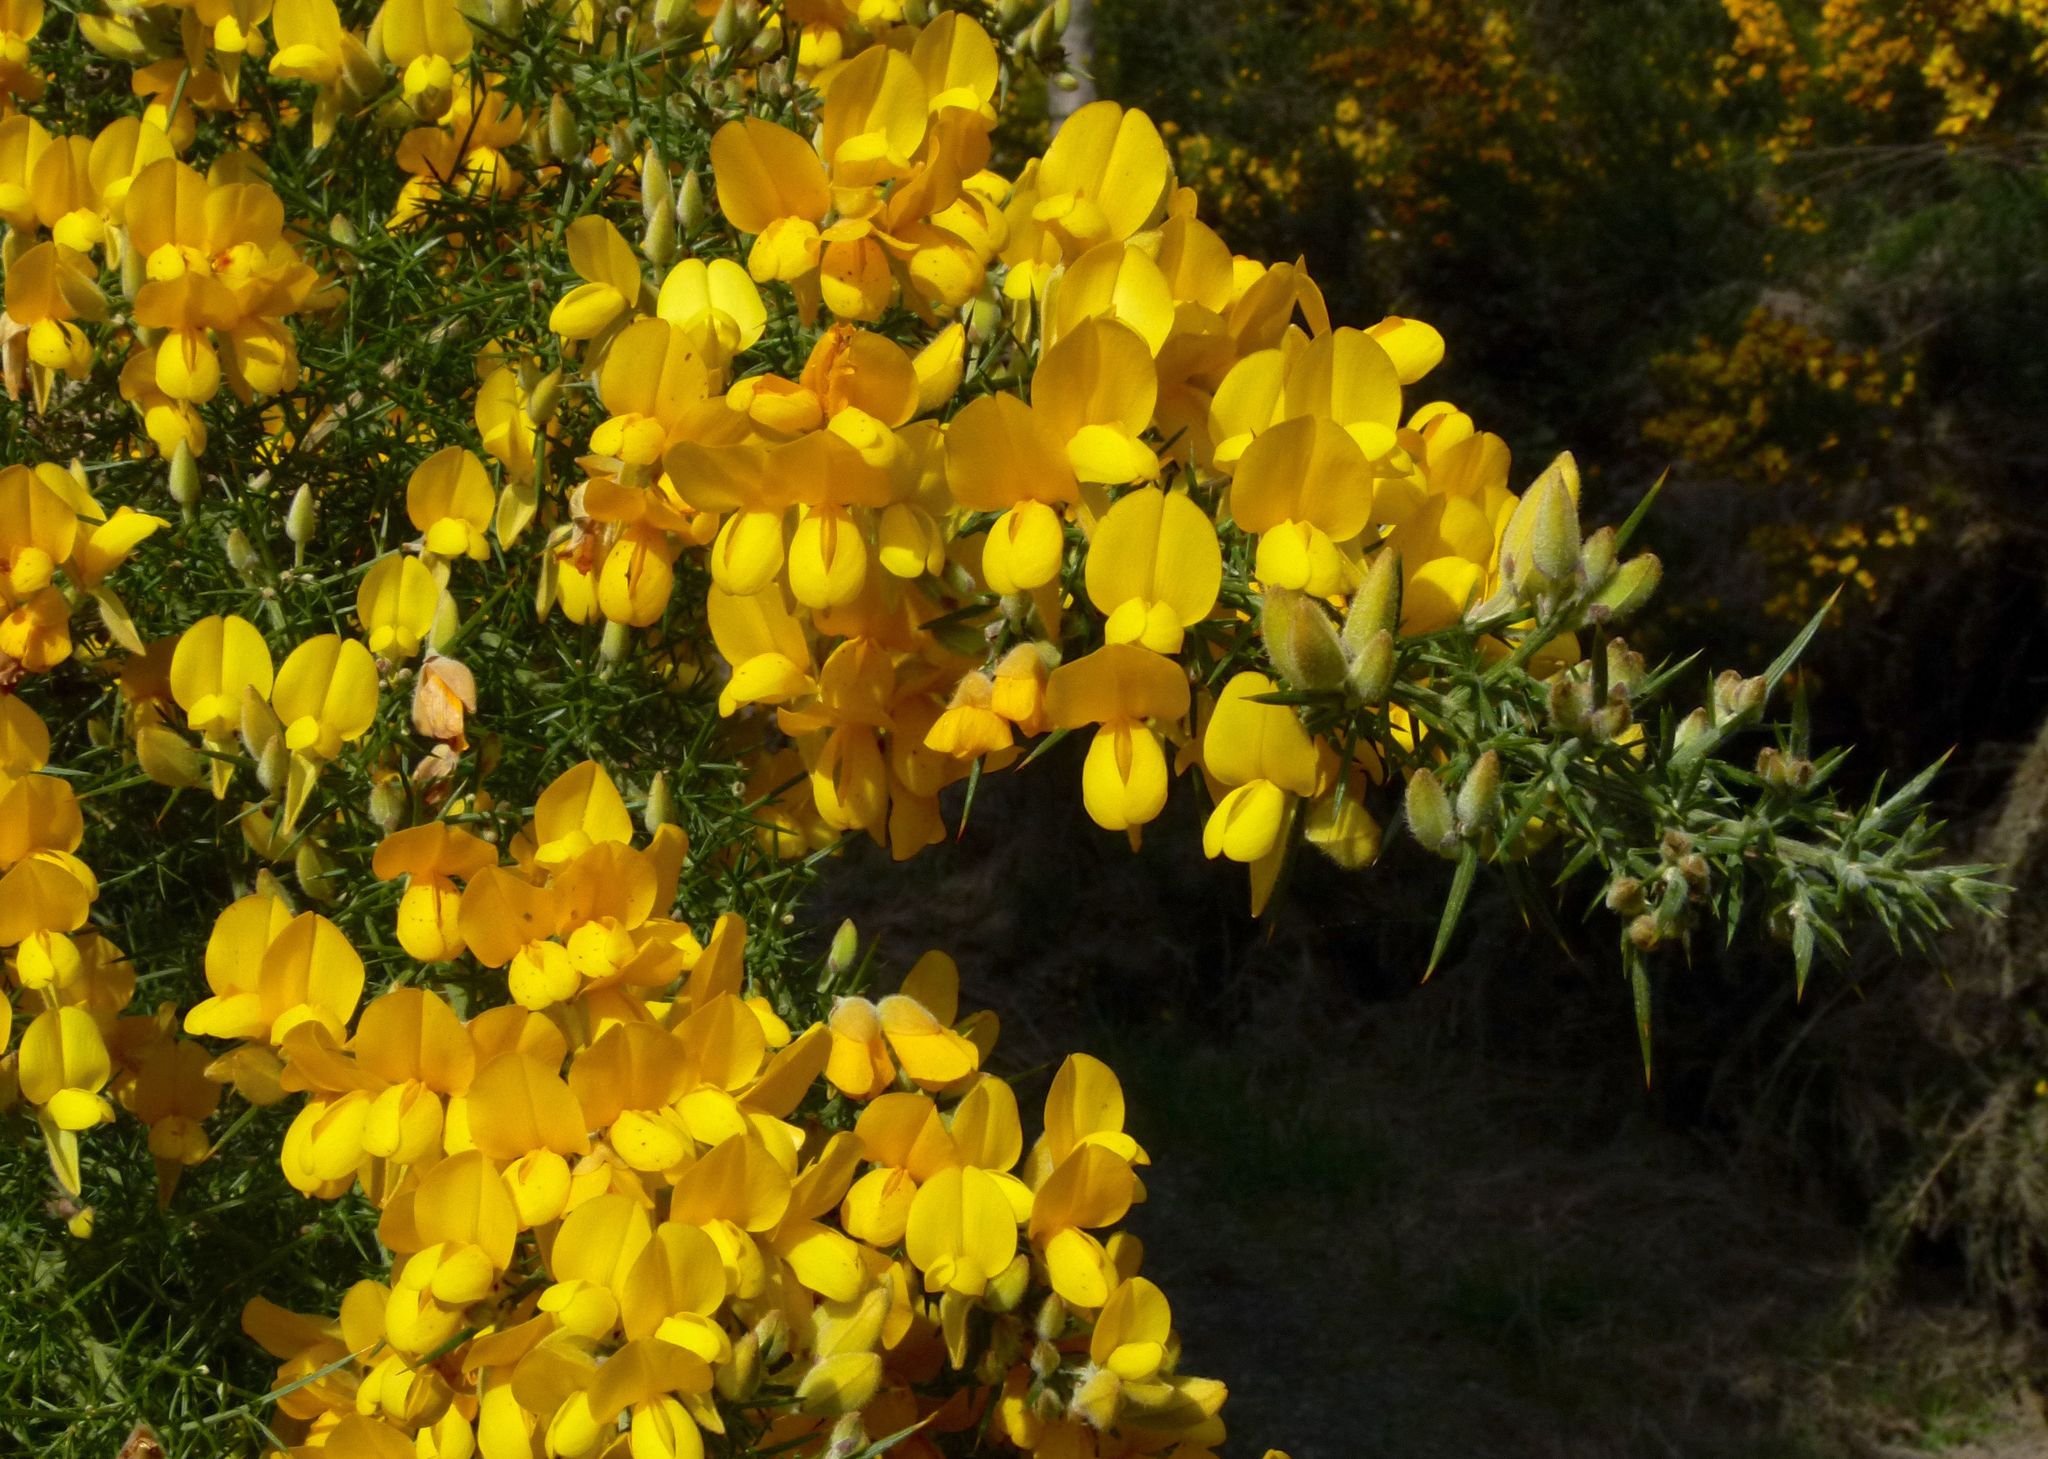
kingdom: Plantae
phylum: Tracheophyta
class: Magnoliopsida
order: Fabales
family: Fabaceae
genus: Ulex
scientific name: Ulex europaeus
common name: Common gorse
